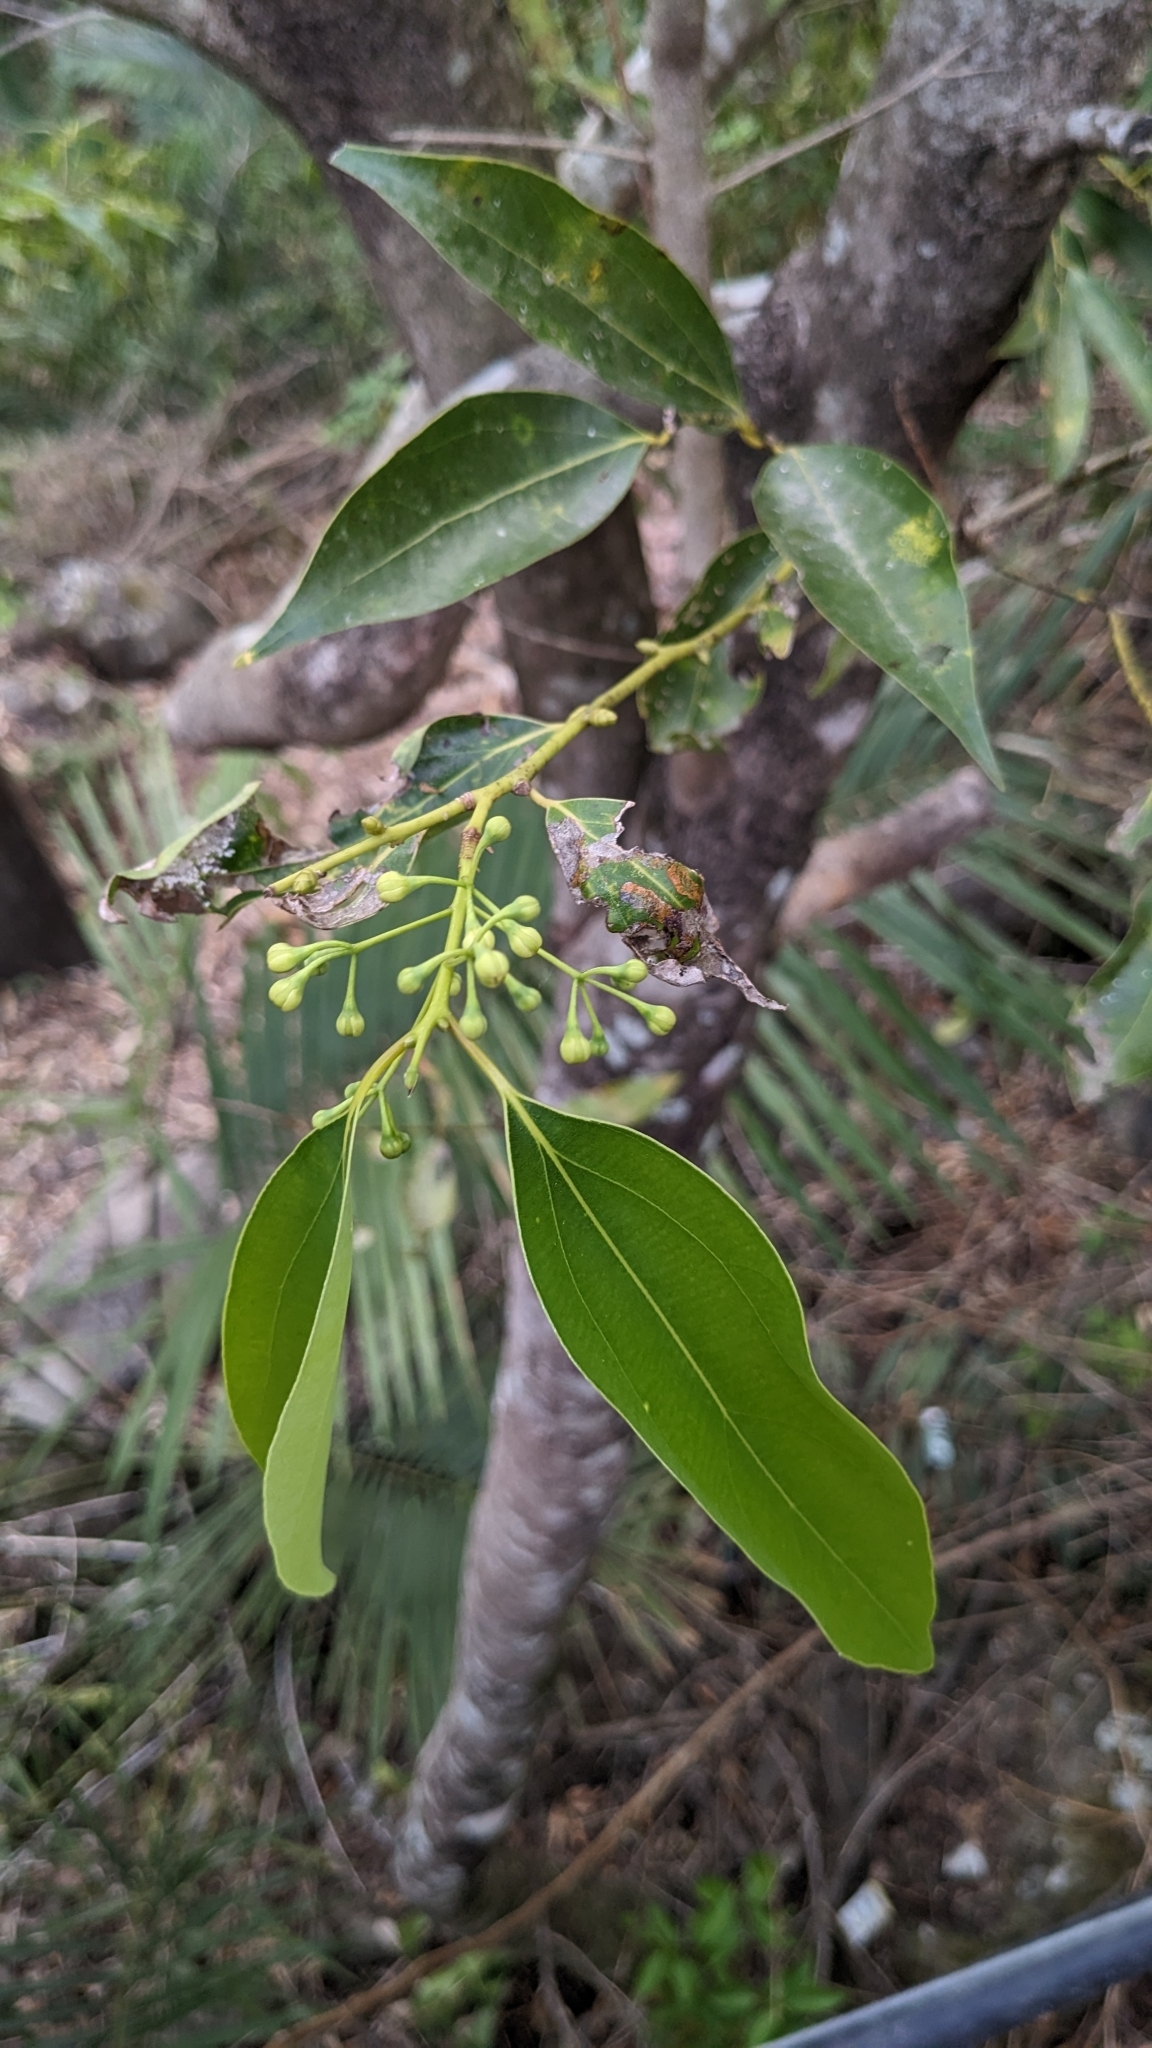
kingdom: Plantae
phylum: Tracheophyta
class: Magnoliopsida
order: Laurales
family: Lauraceae
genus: Cinnamomum
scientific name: Cinnamomum chekiangense
